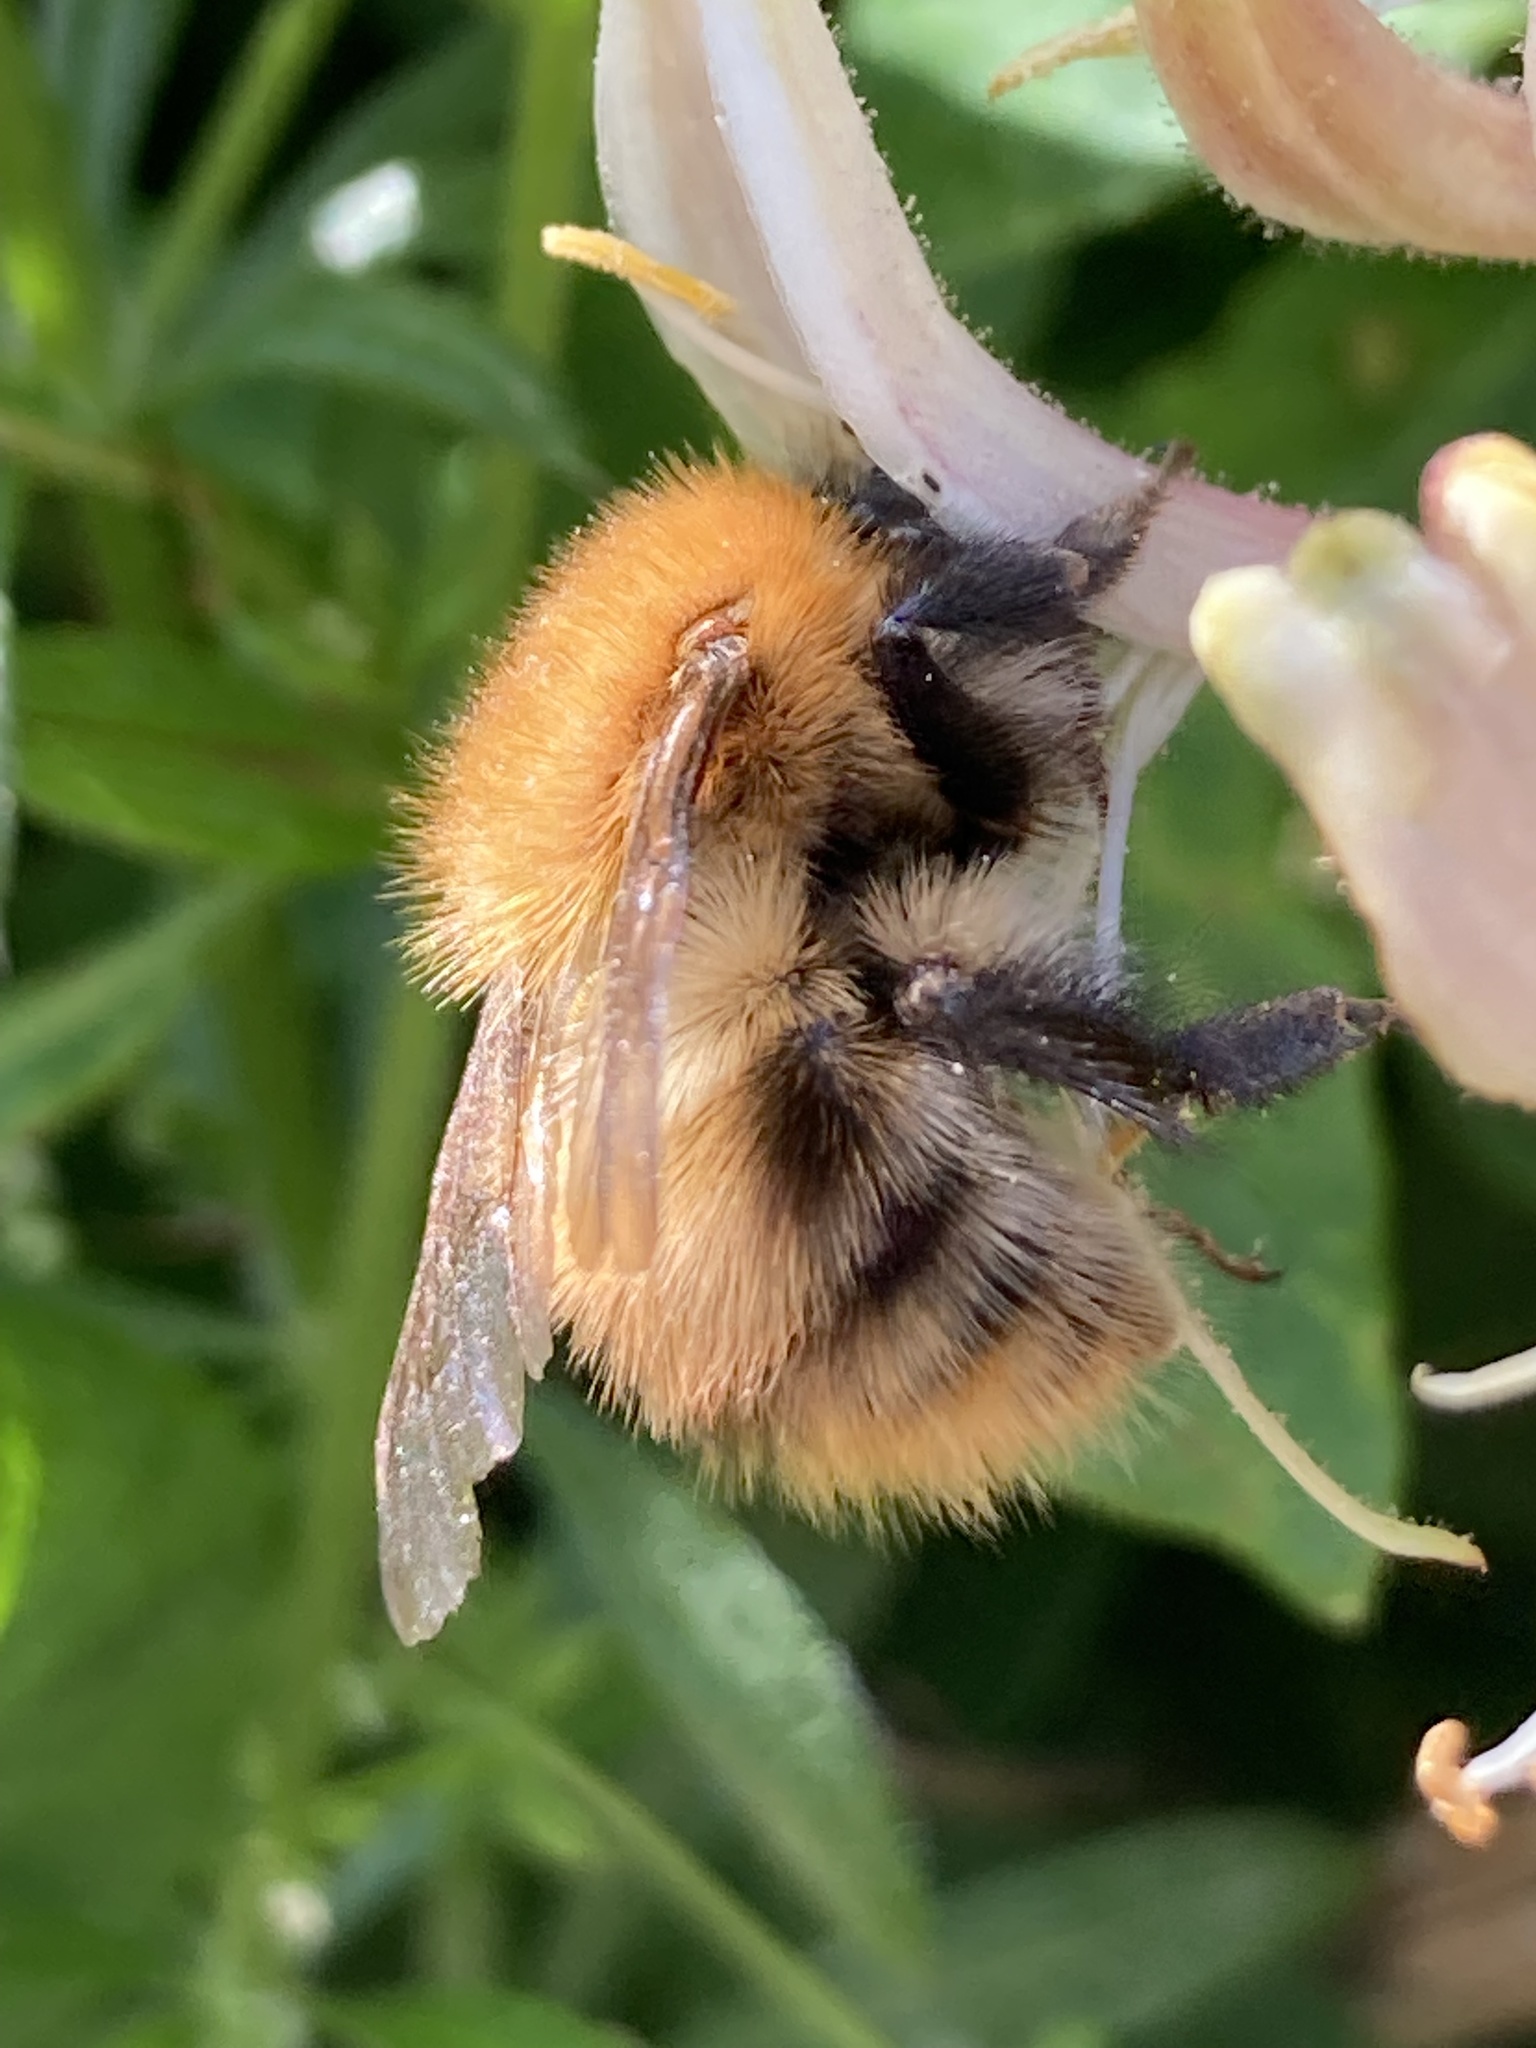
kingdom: Animalia
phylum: Arthropoda
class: Insecta
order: Hymenoptera
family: Apidae
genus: Bombus
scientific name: Bombus pascuorum
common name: Common carder bee
